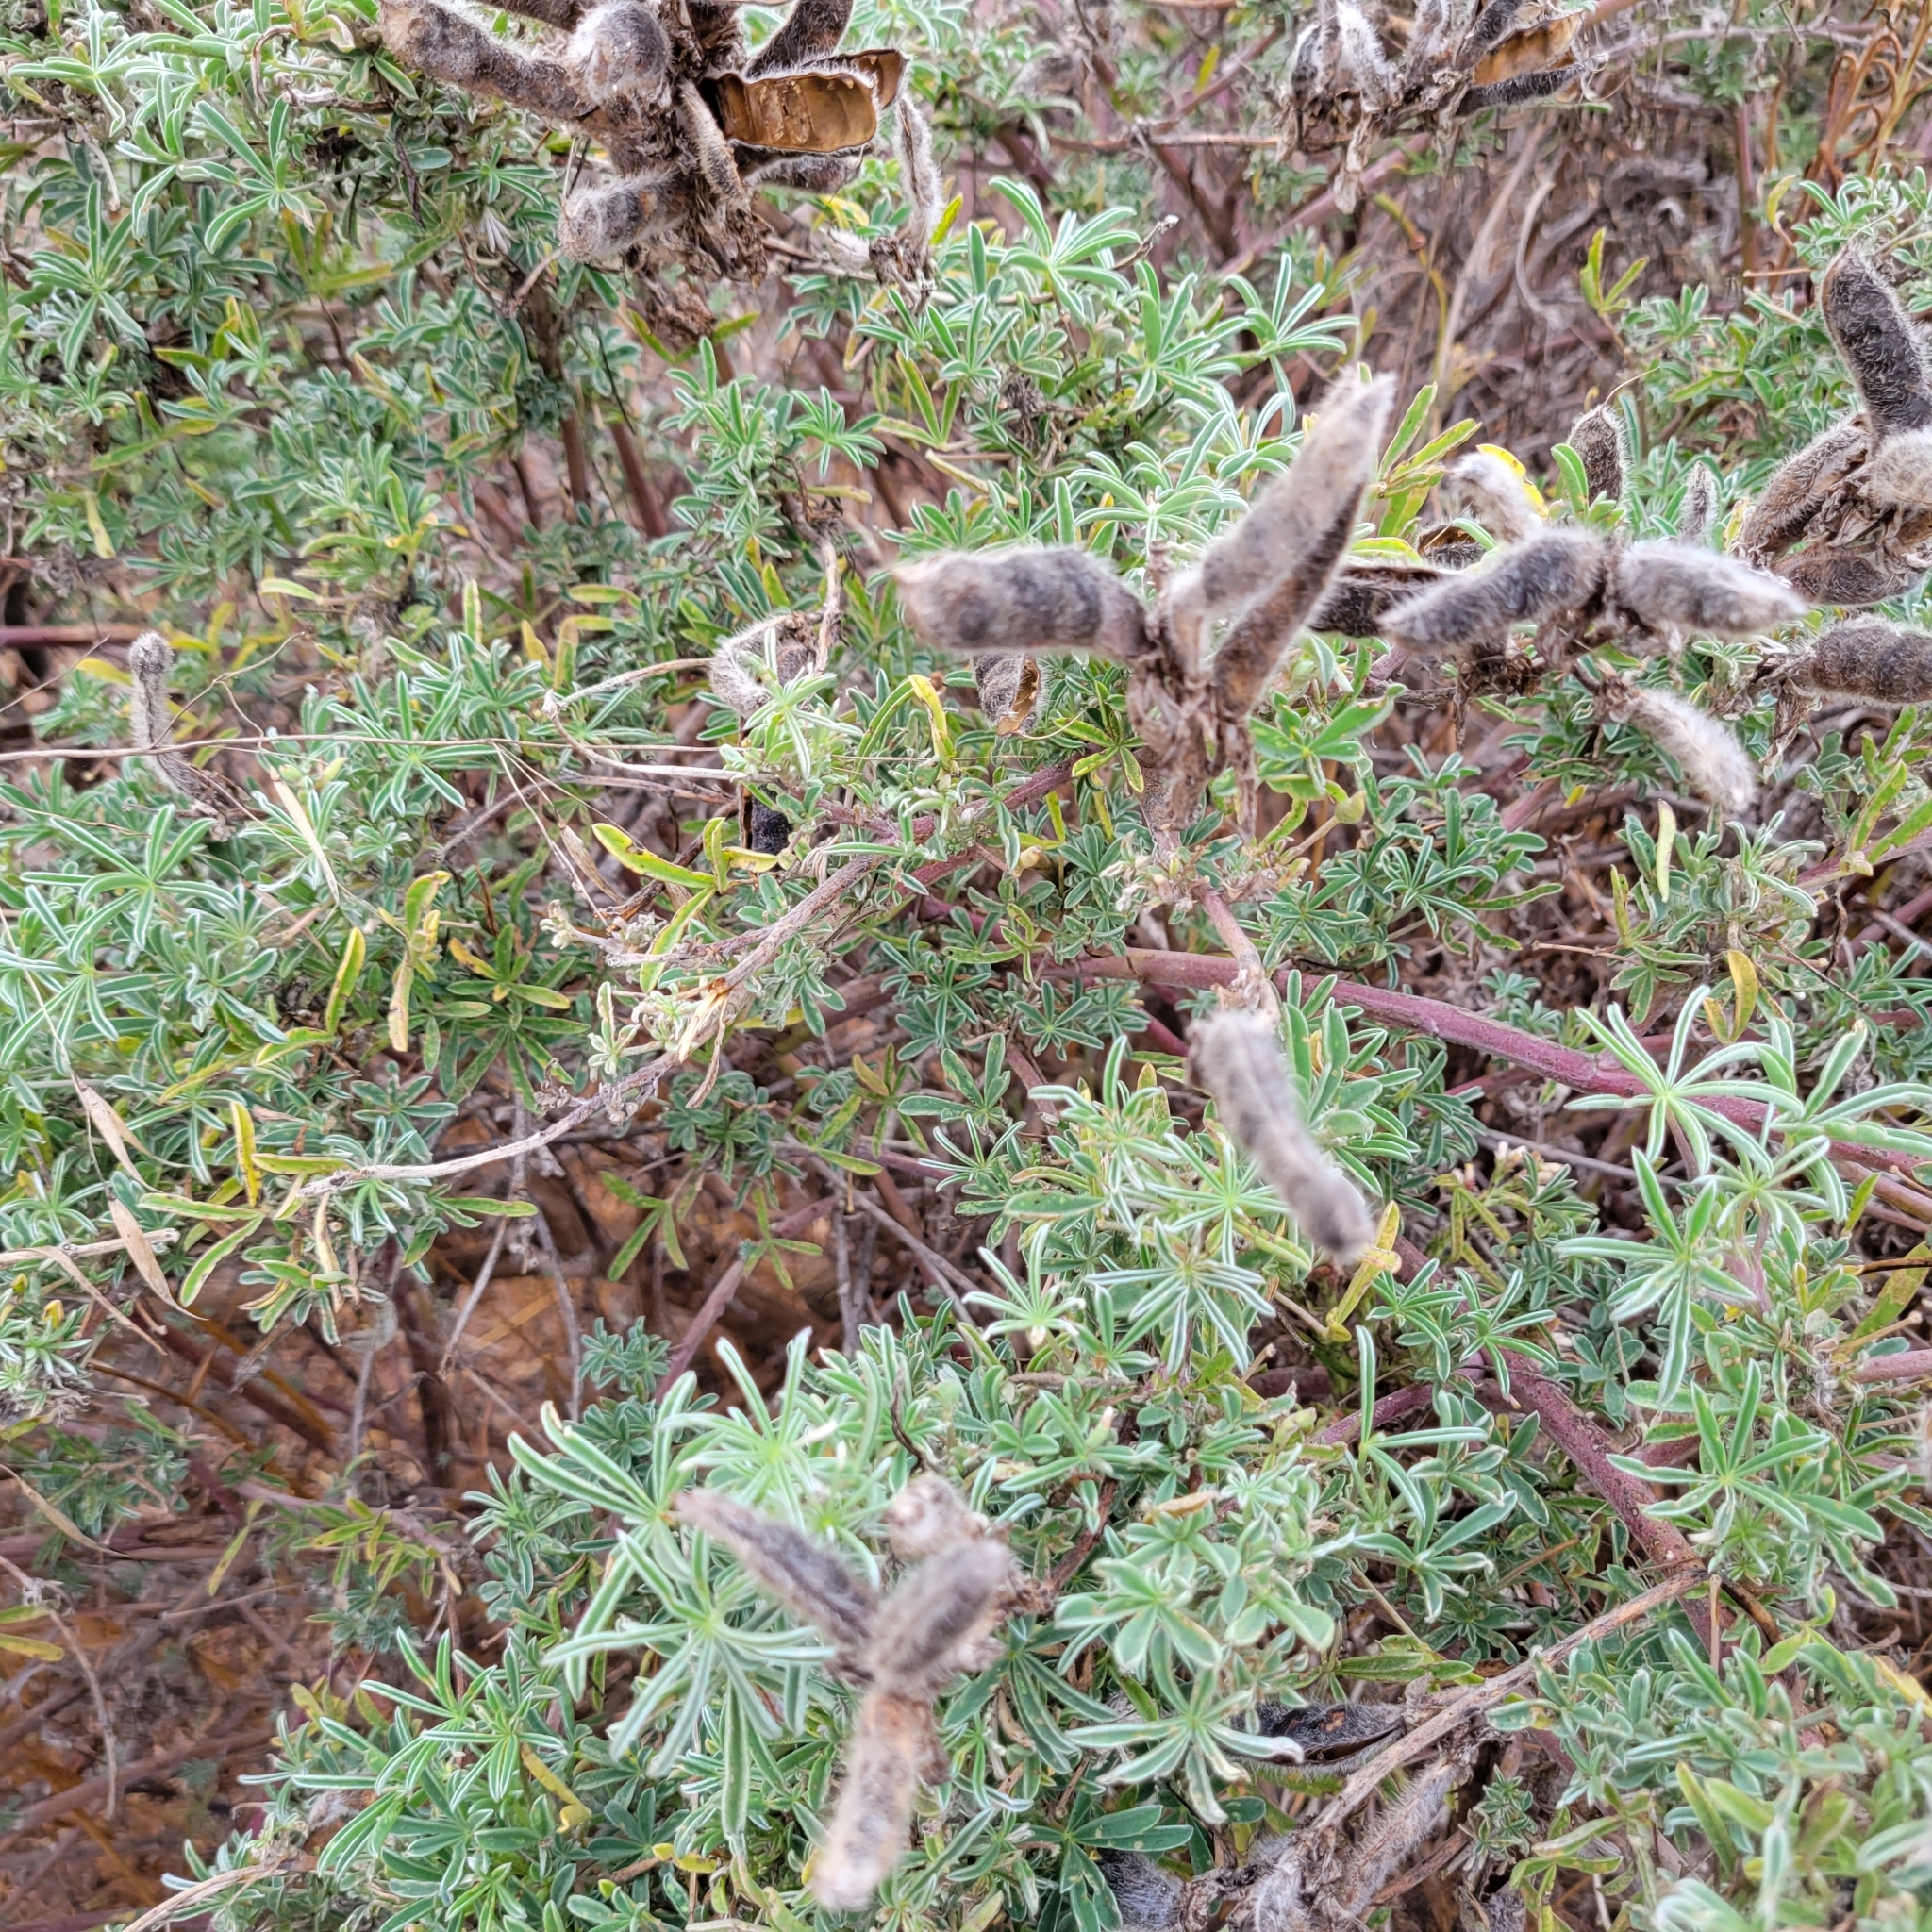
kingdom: Plantae
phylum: Tracheophyta
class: Magnoliopsida
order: Fabales
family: Fabaceae
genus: Lupinus
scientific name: Lupinus arboreus
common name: Yellow bush lupine
